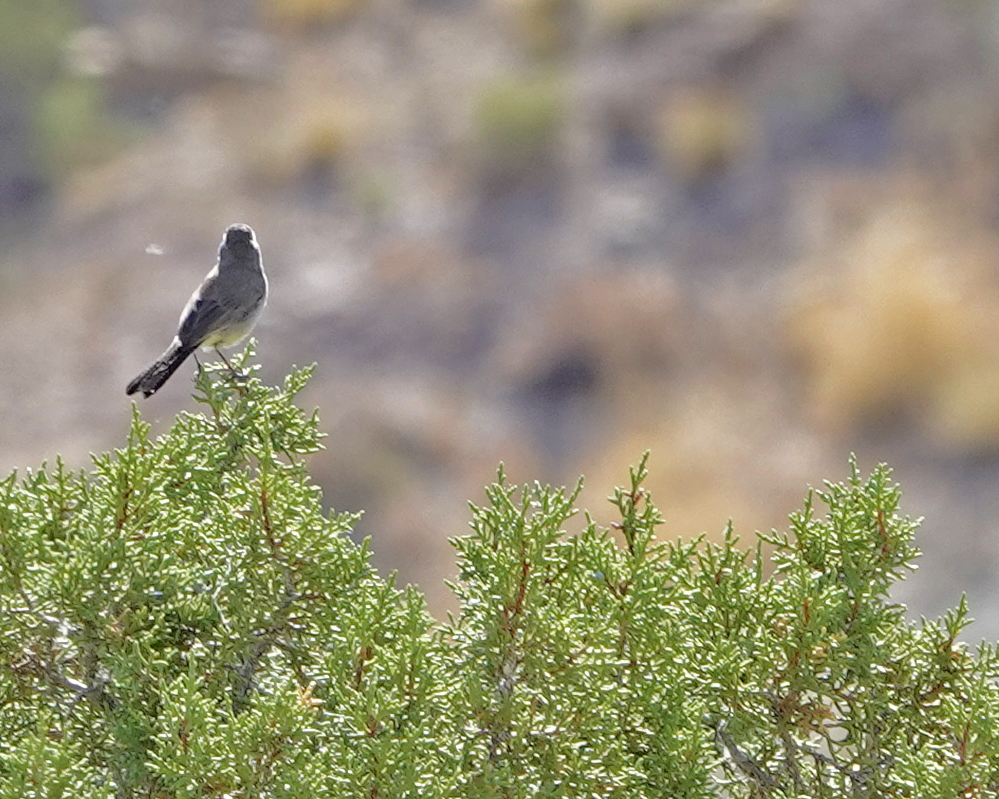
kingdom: Animalia
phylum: Chordata
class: Aves
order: Passeriformes
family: Passerellidae
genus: Amphispiza
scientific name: Amphispiza bilineata
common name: Black-throated sparrow
